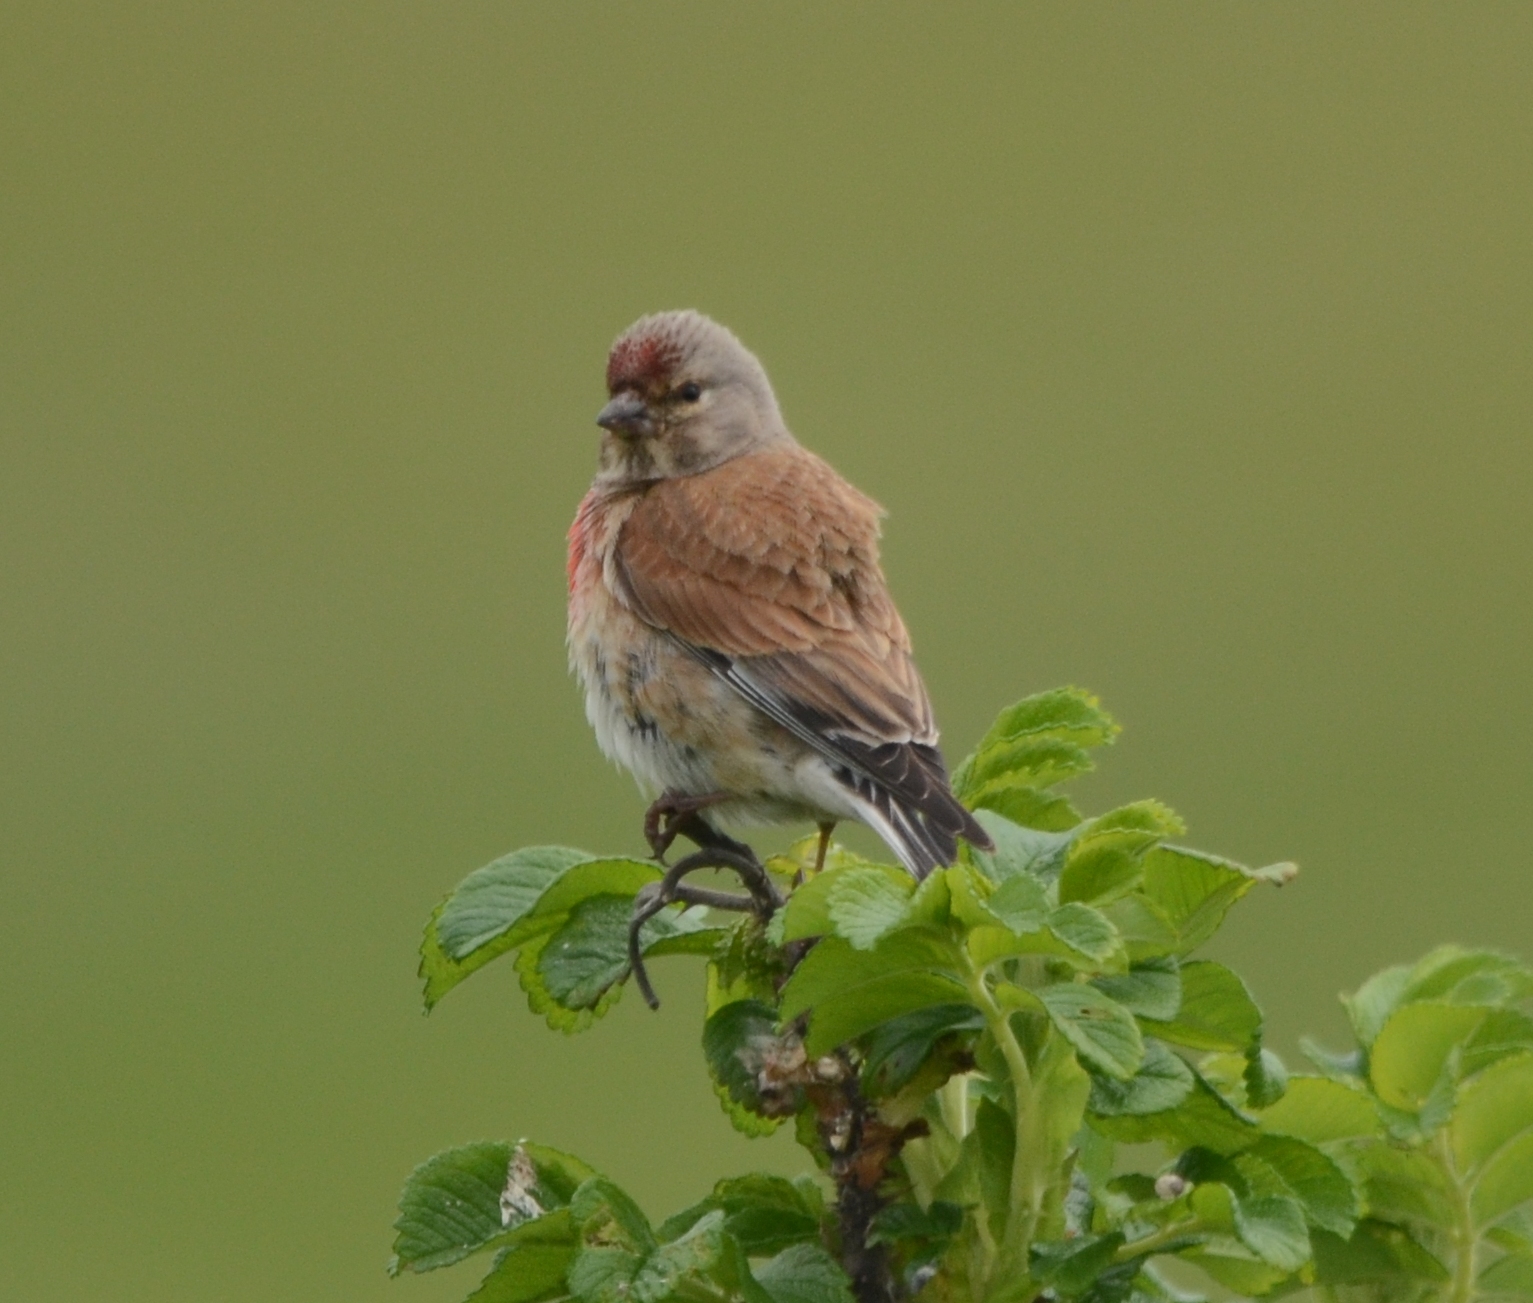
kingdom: Animalia
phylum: Chordata
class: Aves
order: Passeriformes
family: Fringillidae
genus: Linaria
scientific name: Linaria cannabina
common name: Common linnet
